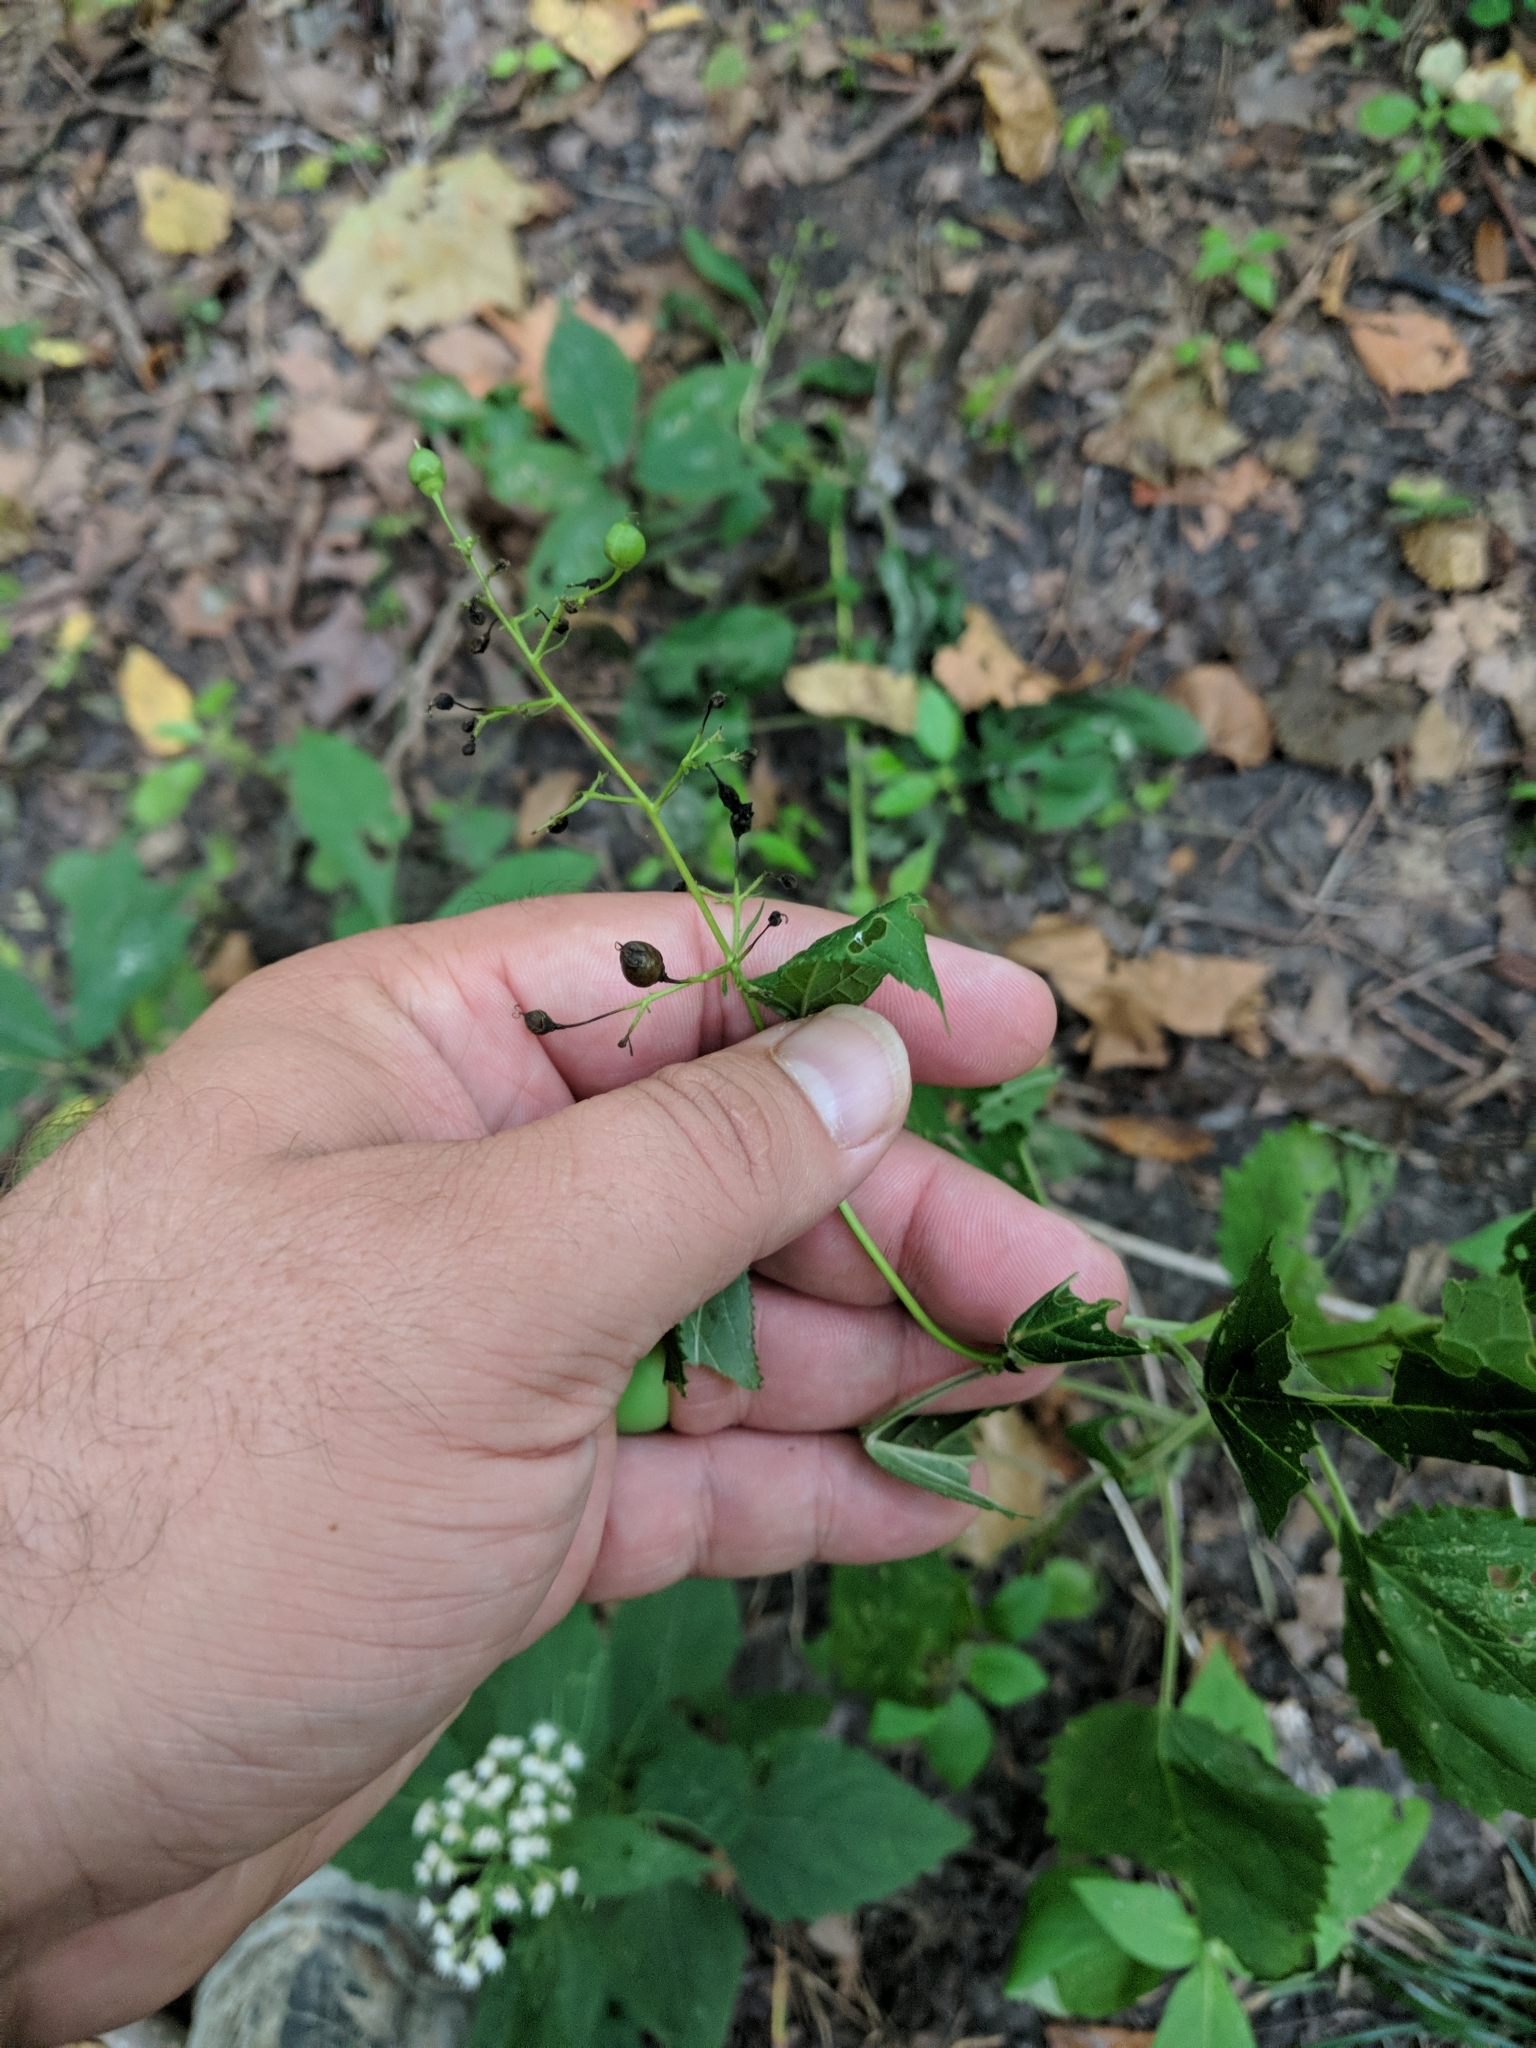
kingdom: Plantae
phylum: Tracheophyta
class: Magnoliopsida
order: Lamiales
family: Scrophulariaceae
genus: Scrophularia
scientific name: Scrophularia marilandica
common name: Eastern figwort
